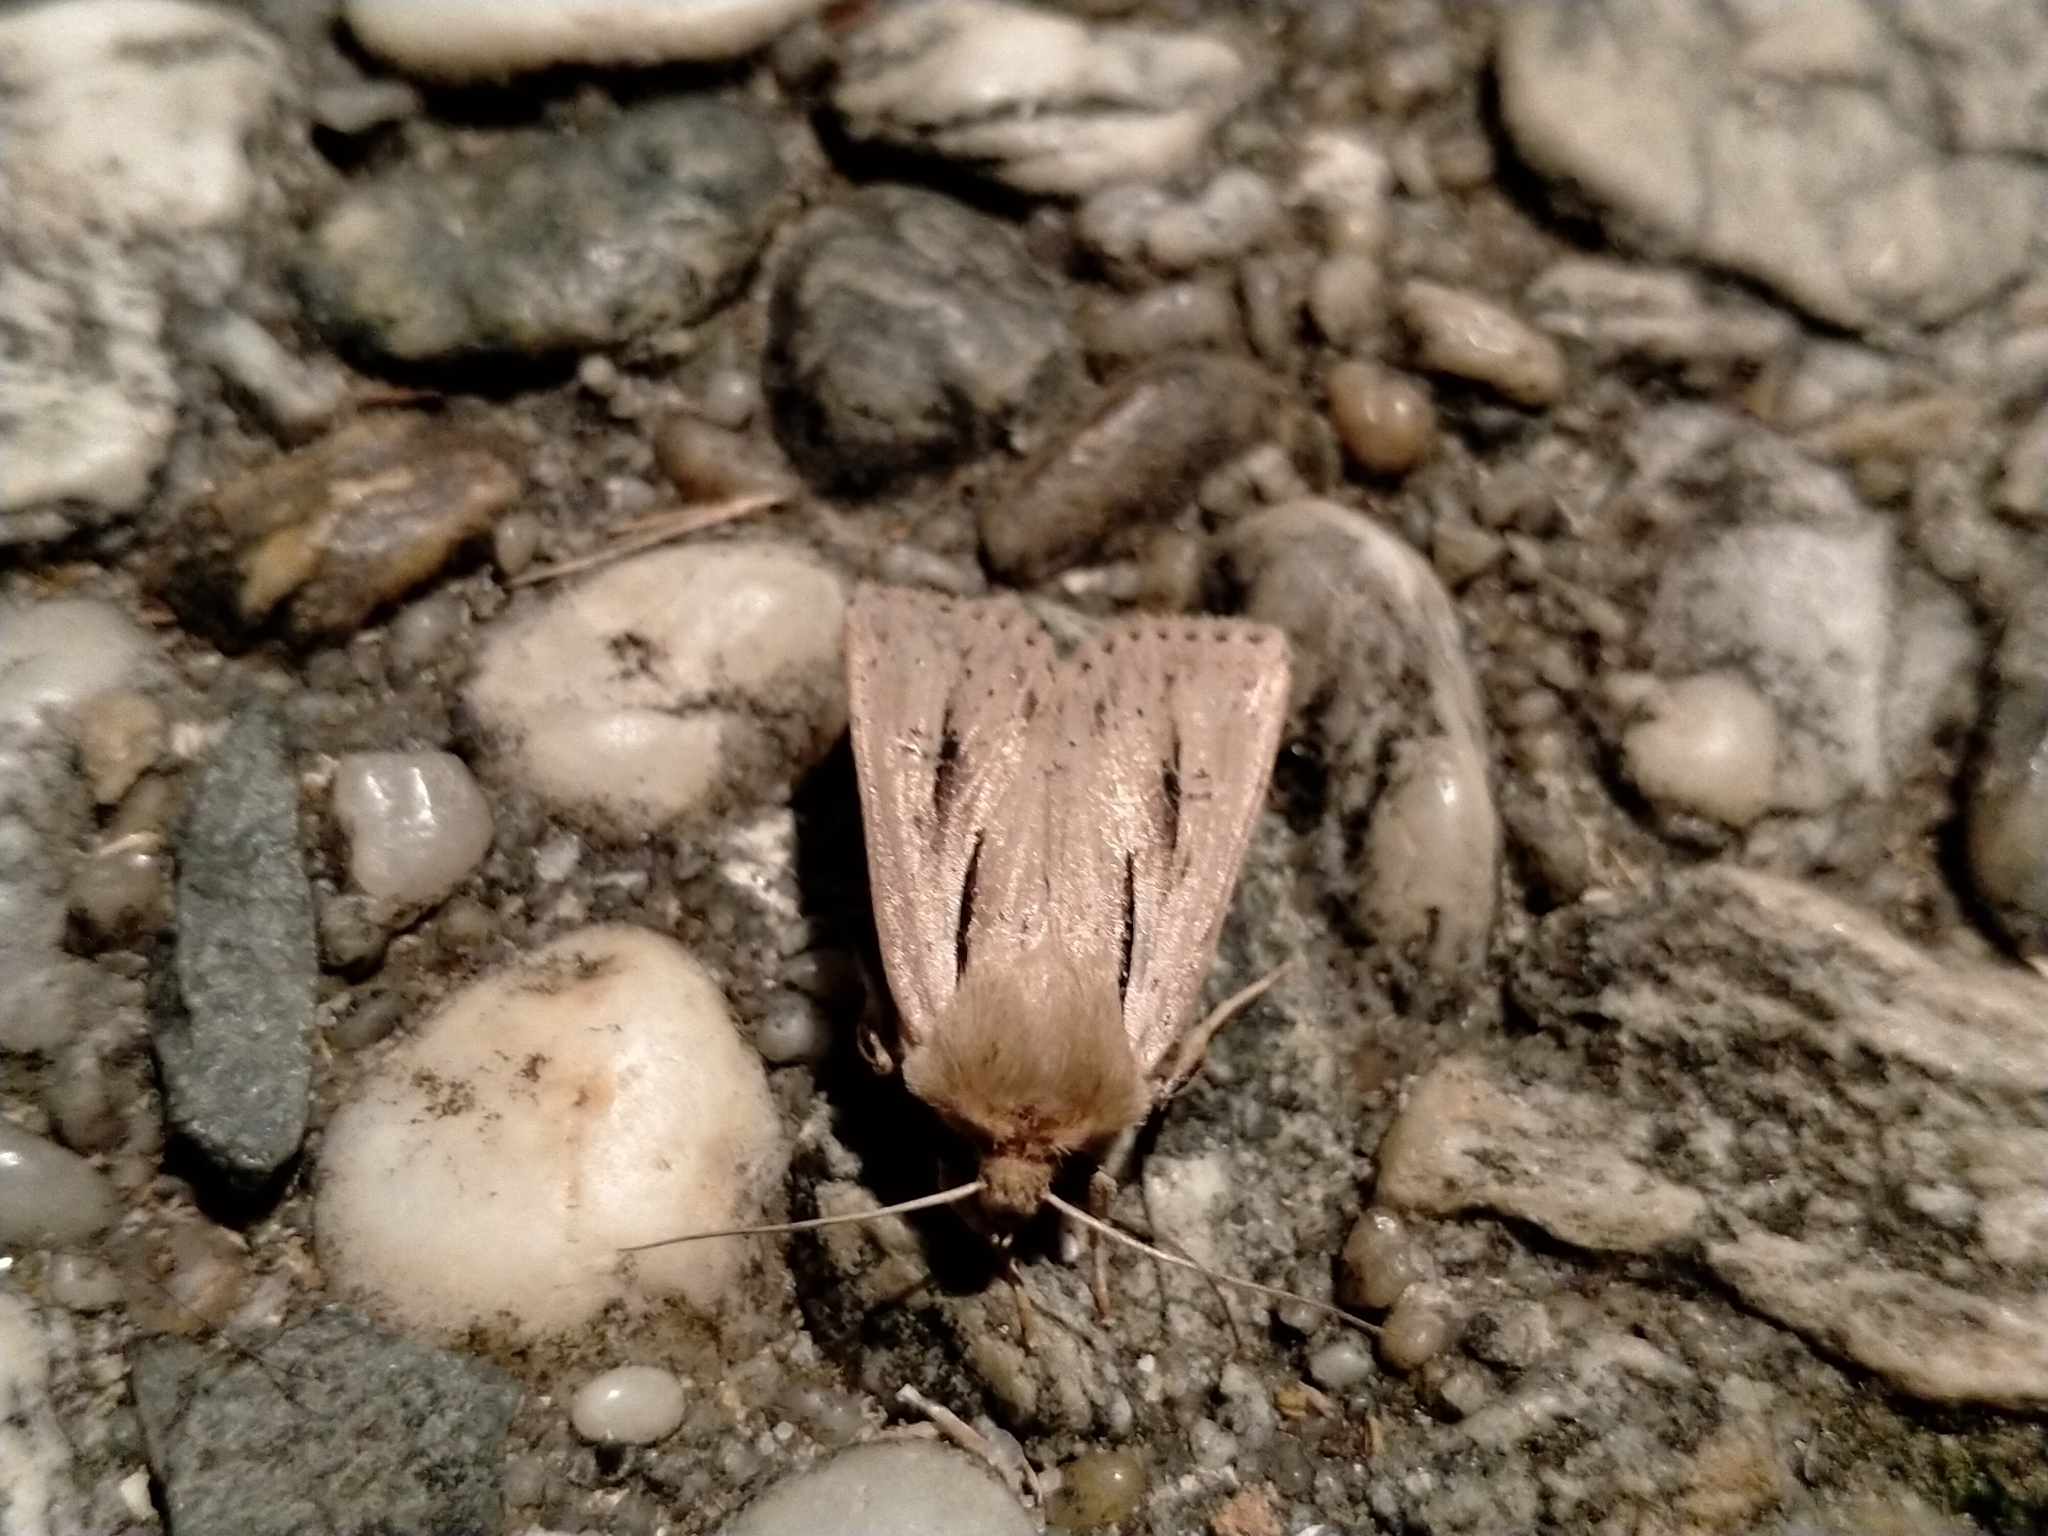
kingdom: Animalia
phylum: Arthropoda
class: Insecta
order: Lepidoptera
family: Noctuidae
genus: Ichneutica
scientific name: Ichneutica propria
